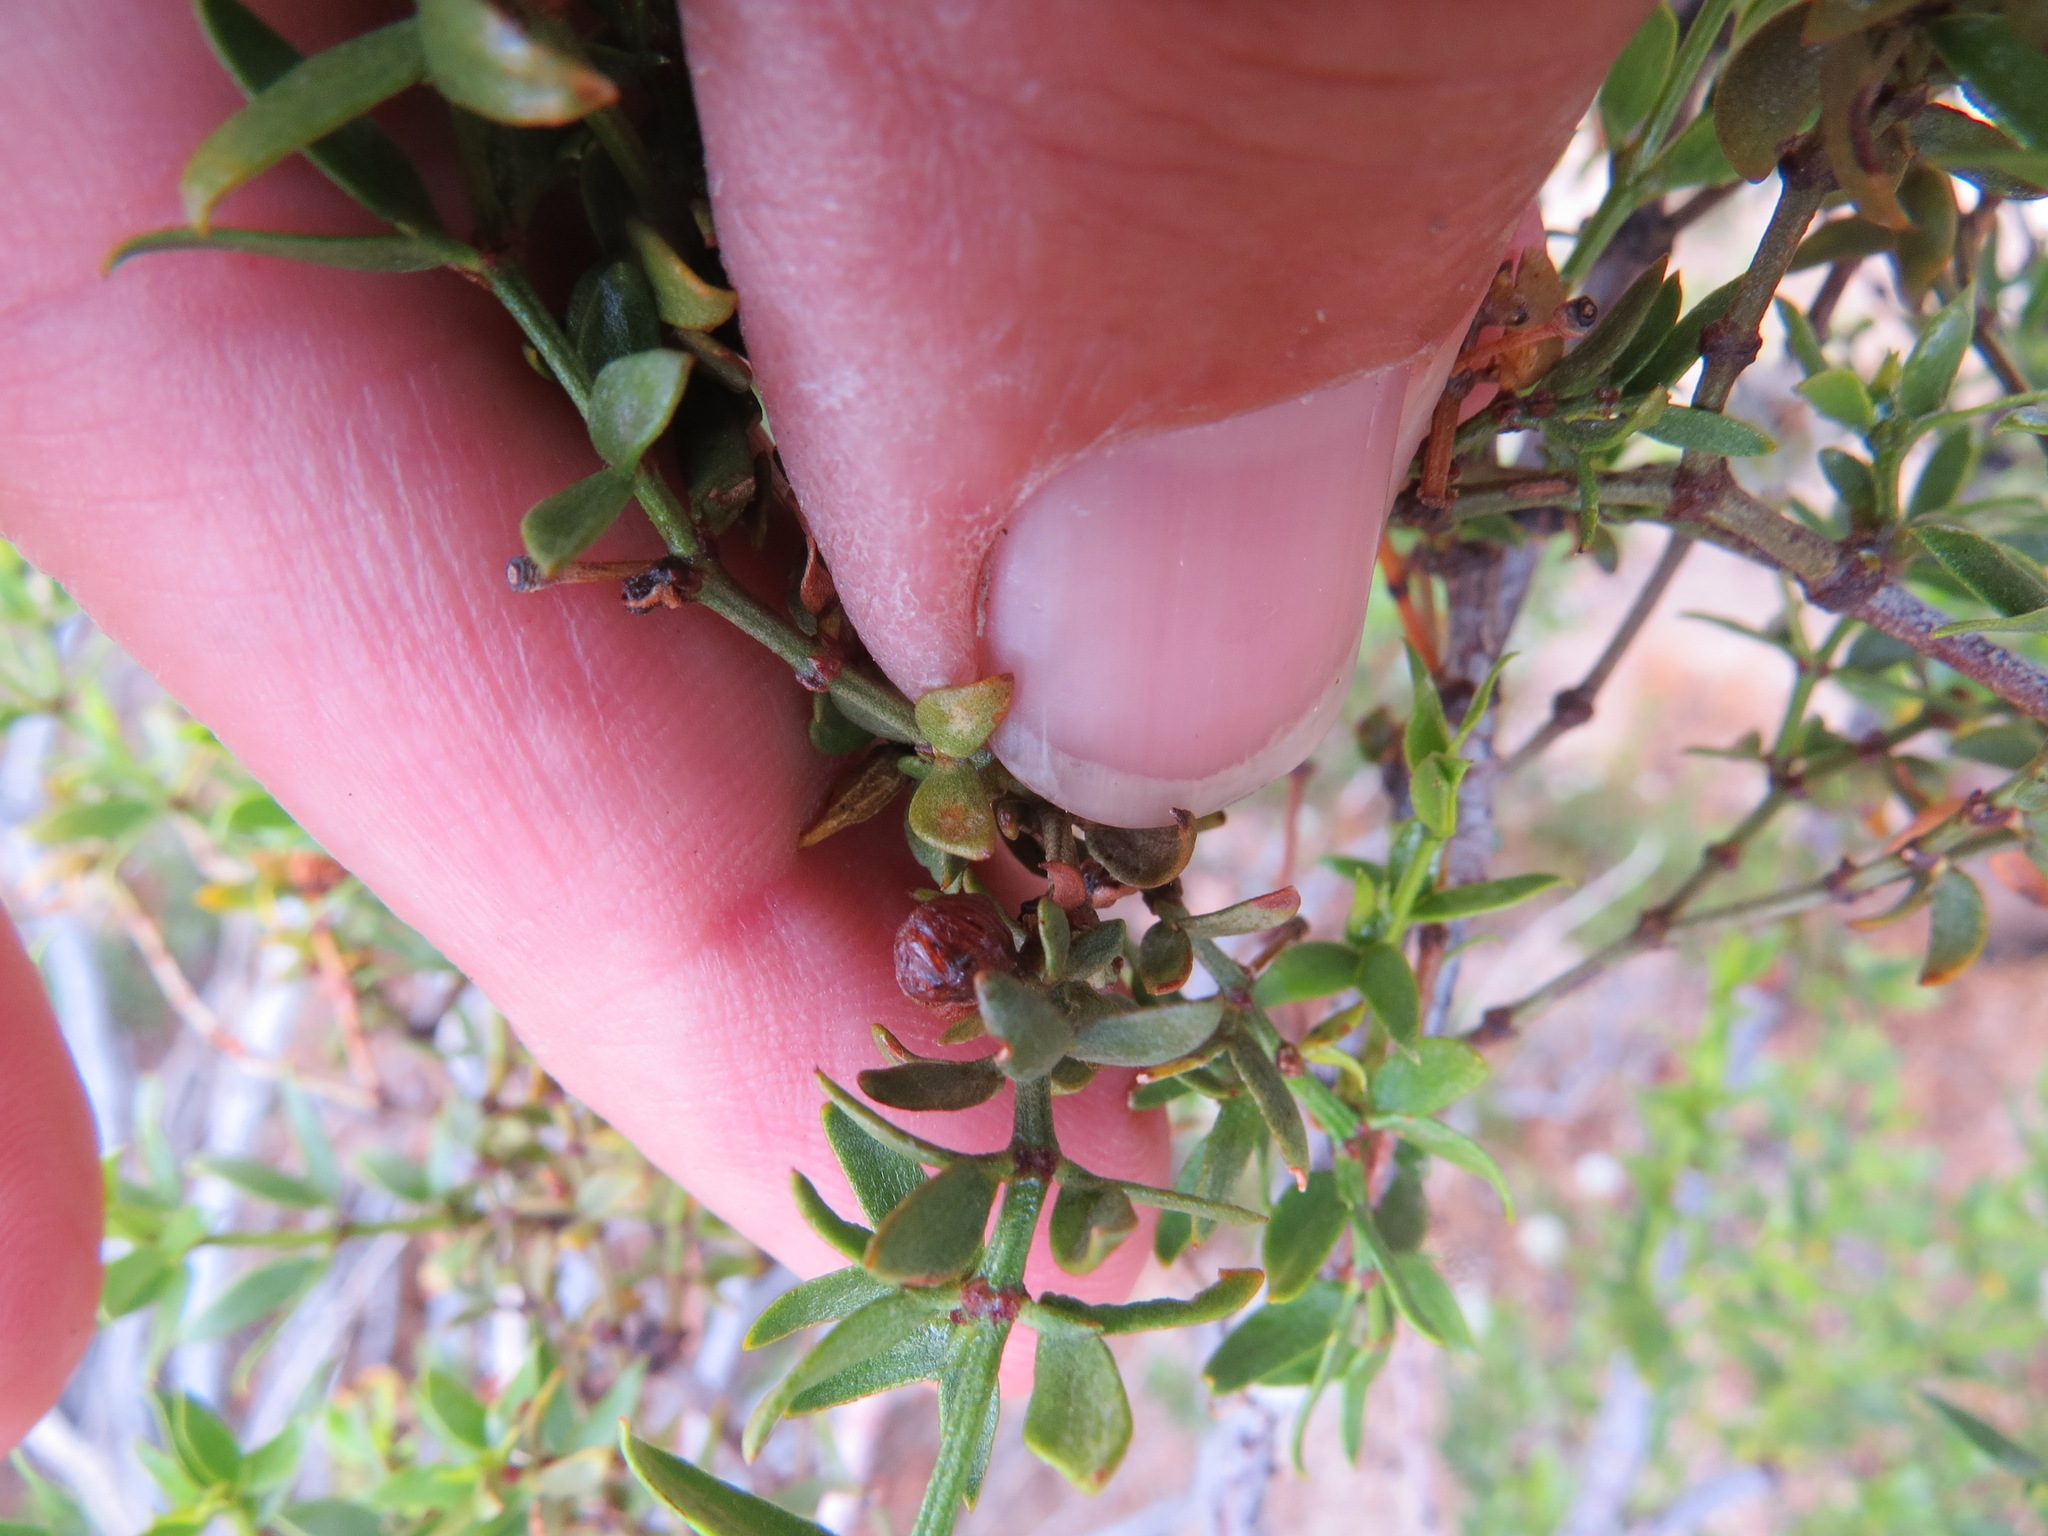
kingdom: Animalia
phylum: Arthropoda
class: Insecta
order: Diptera
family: Cecidomyiidae
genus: Asphondylia
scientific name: Asphondylia resinosa
